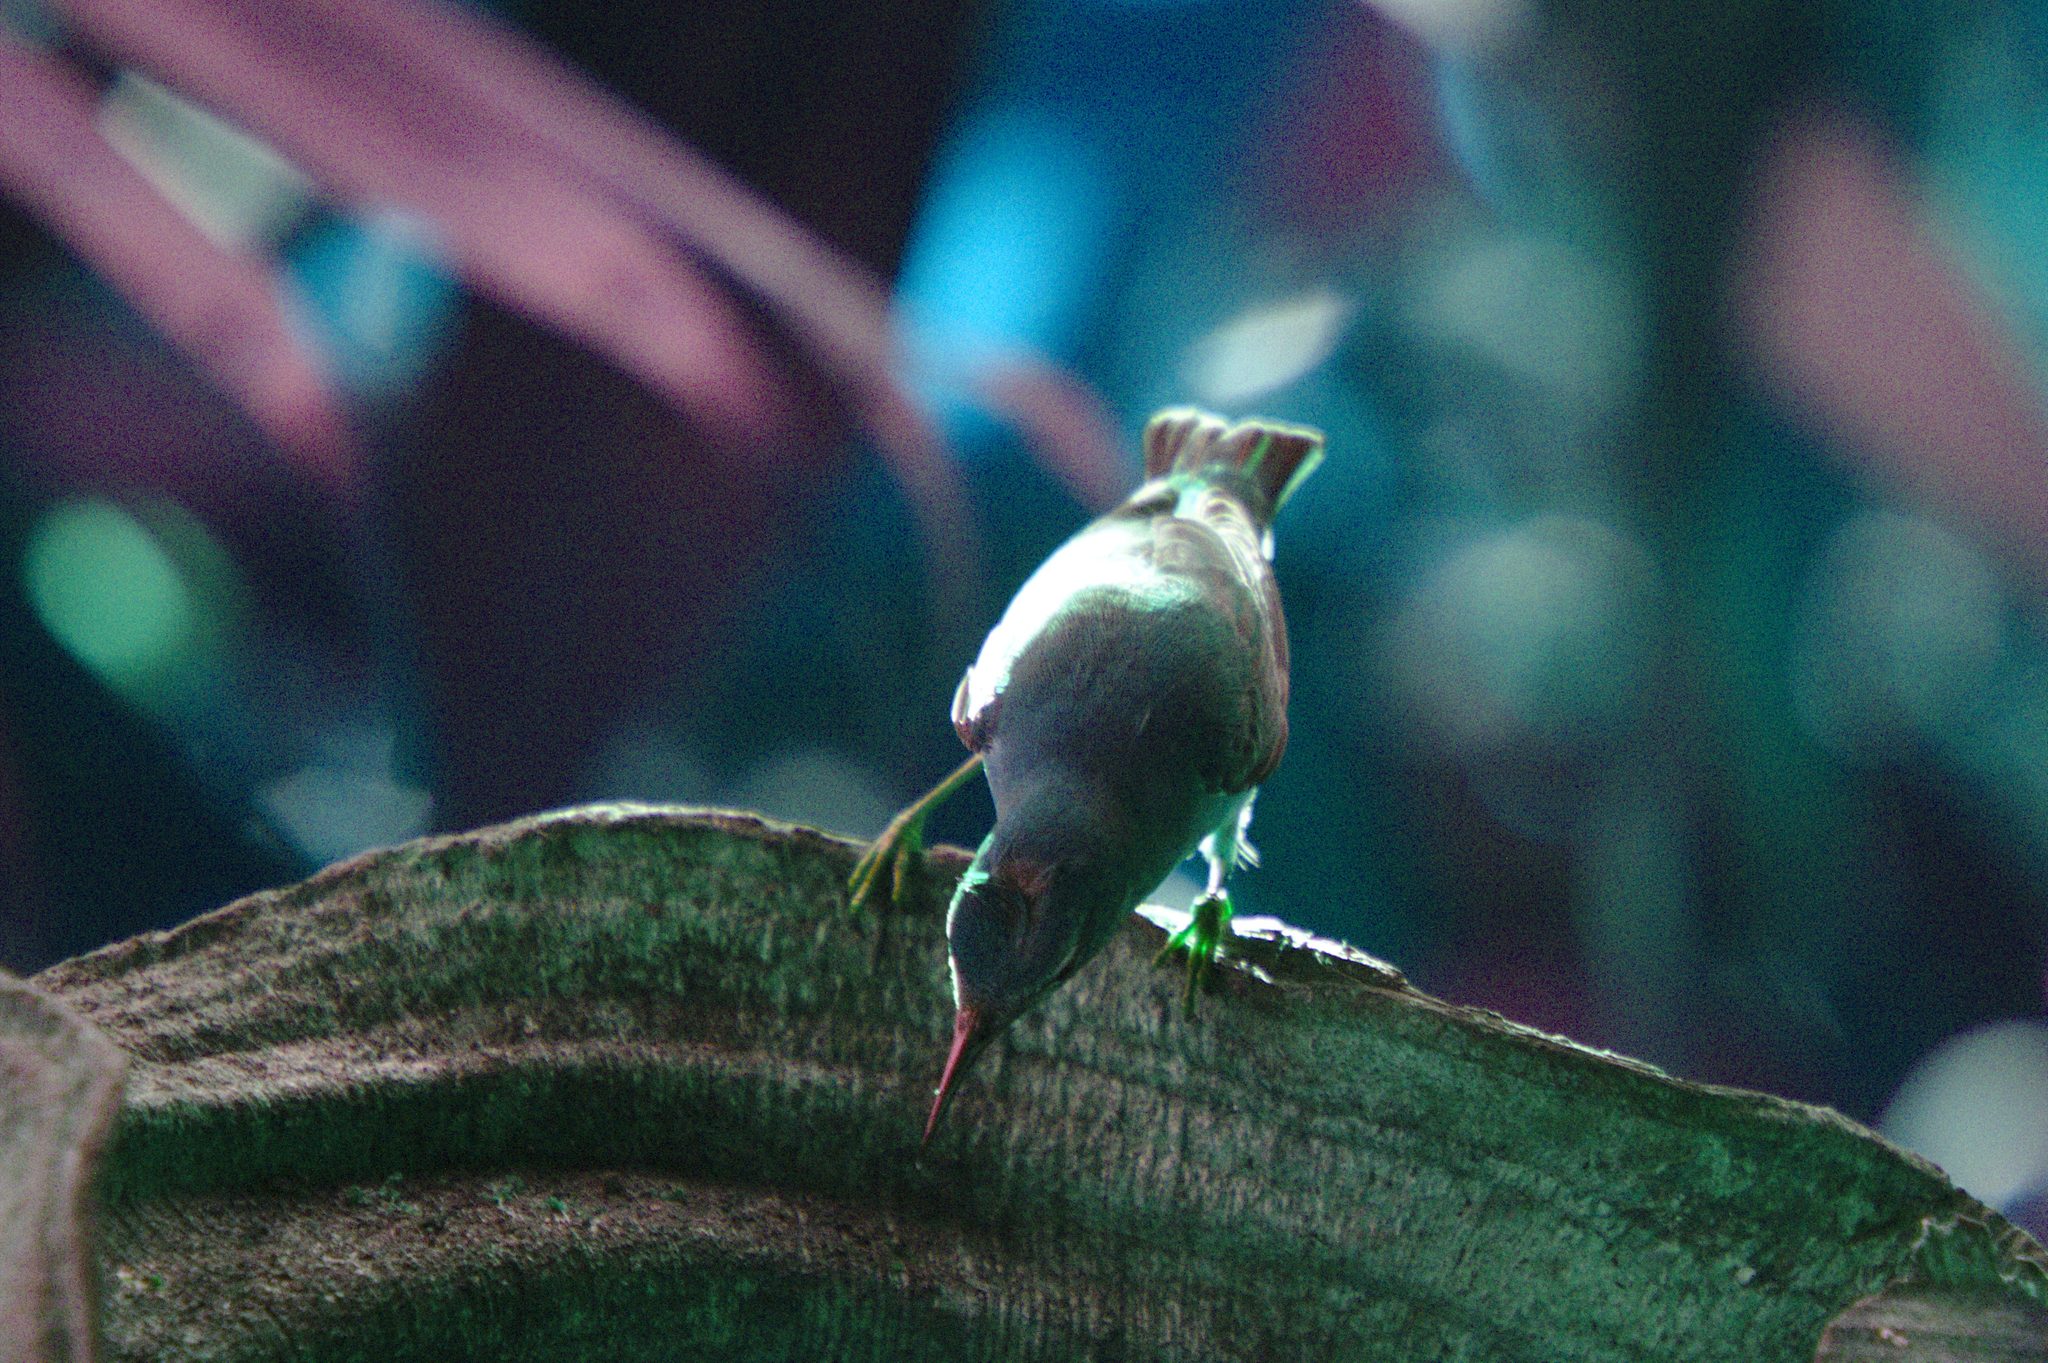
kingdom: Animalia
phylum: Chordata
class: Aves
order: Passeriformes
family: Thraupidae
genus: Cyanerpes
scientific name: Cyanerpes cyaneus
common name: Red-legged honeycreeper
